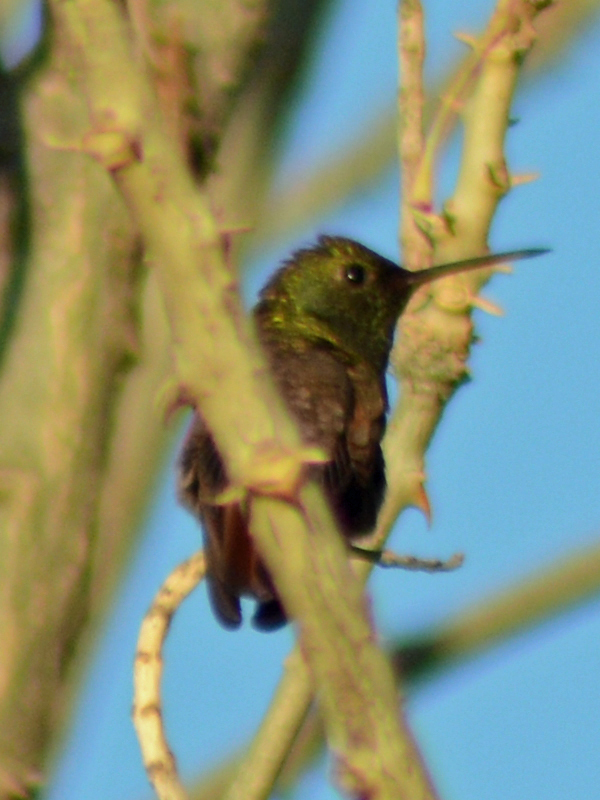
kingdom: Animalia
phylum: Chordata
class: Aves
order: Apodiformes
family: Trochilidae
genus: Saucerottia
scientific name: Saucerottia beryllina
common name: Berylline hummingbird
